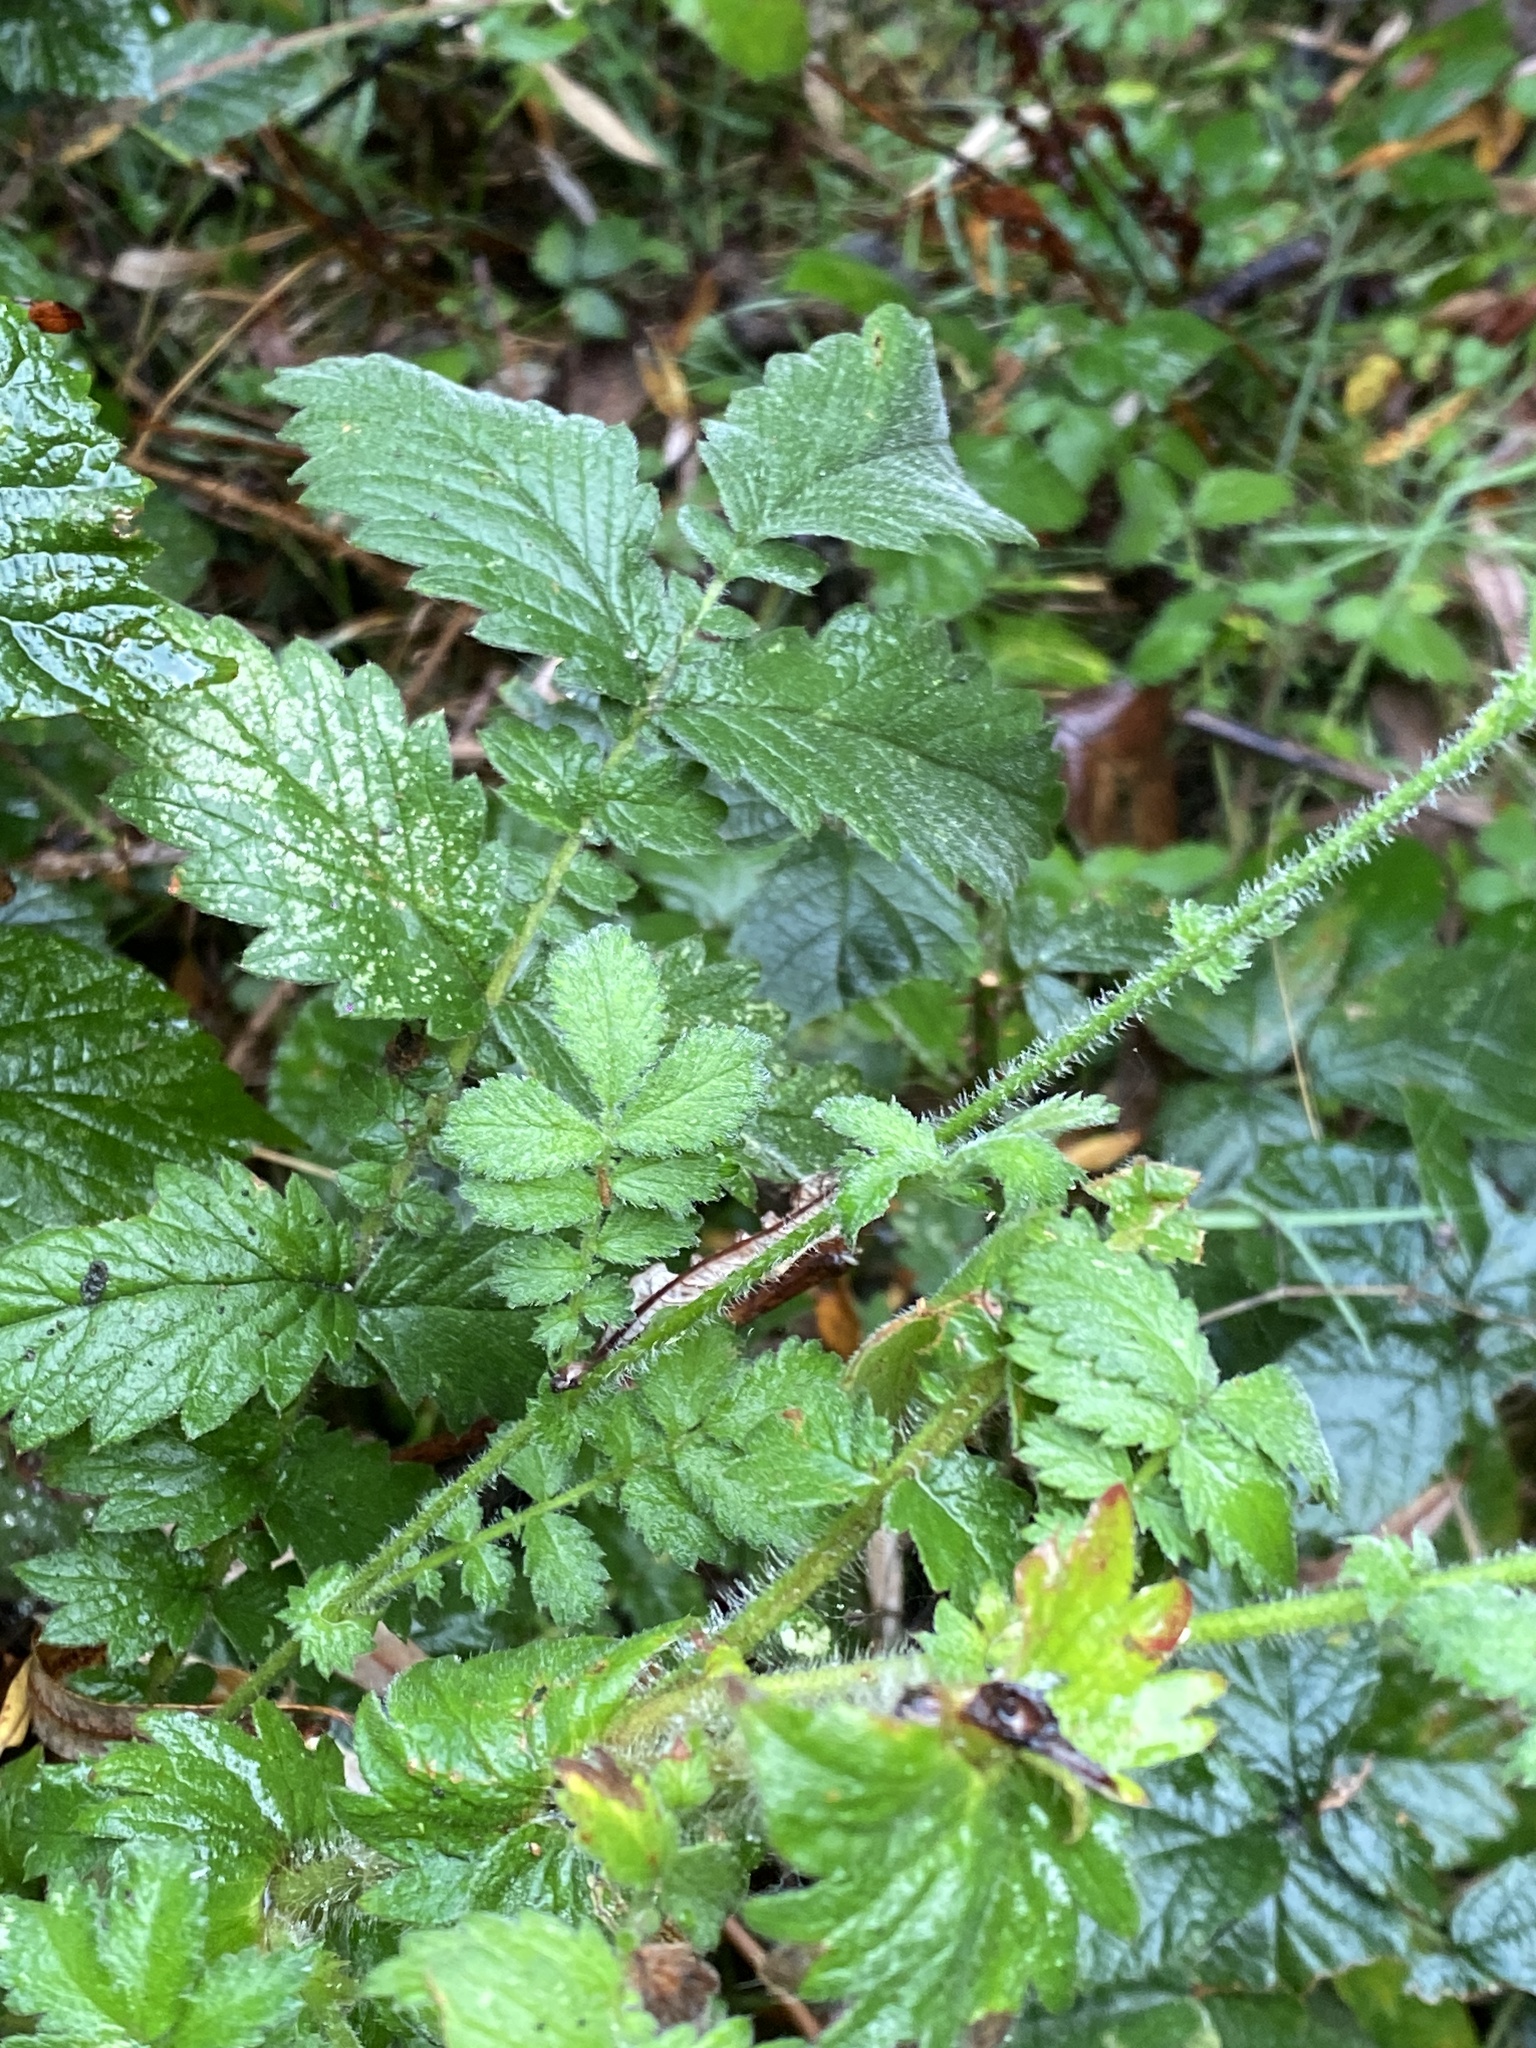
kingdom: Plantae
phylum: Tracheophyta
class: Magnoliopsida
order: Rosales
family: Rosaceae
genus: Agrimonia
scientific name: Agrimonia eupatoria
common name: Agrimony
